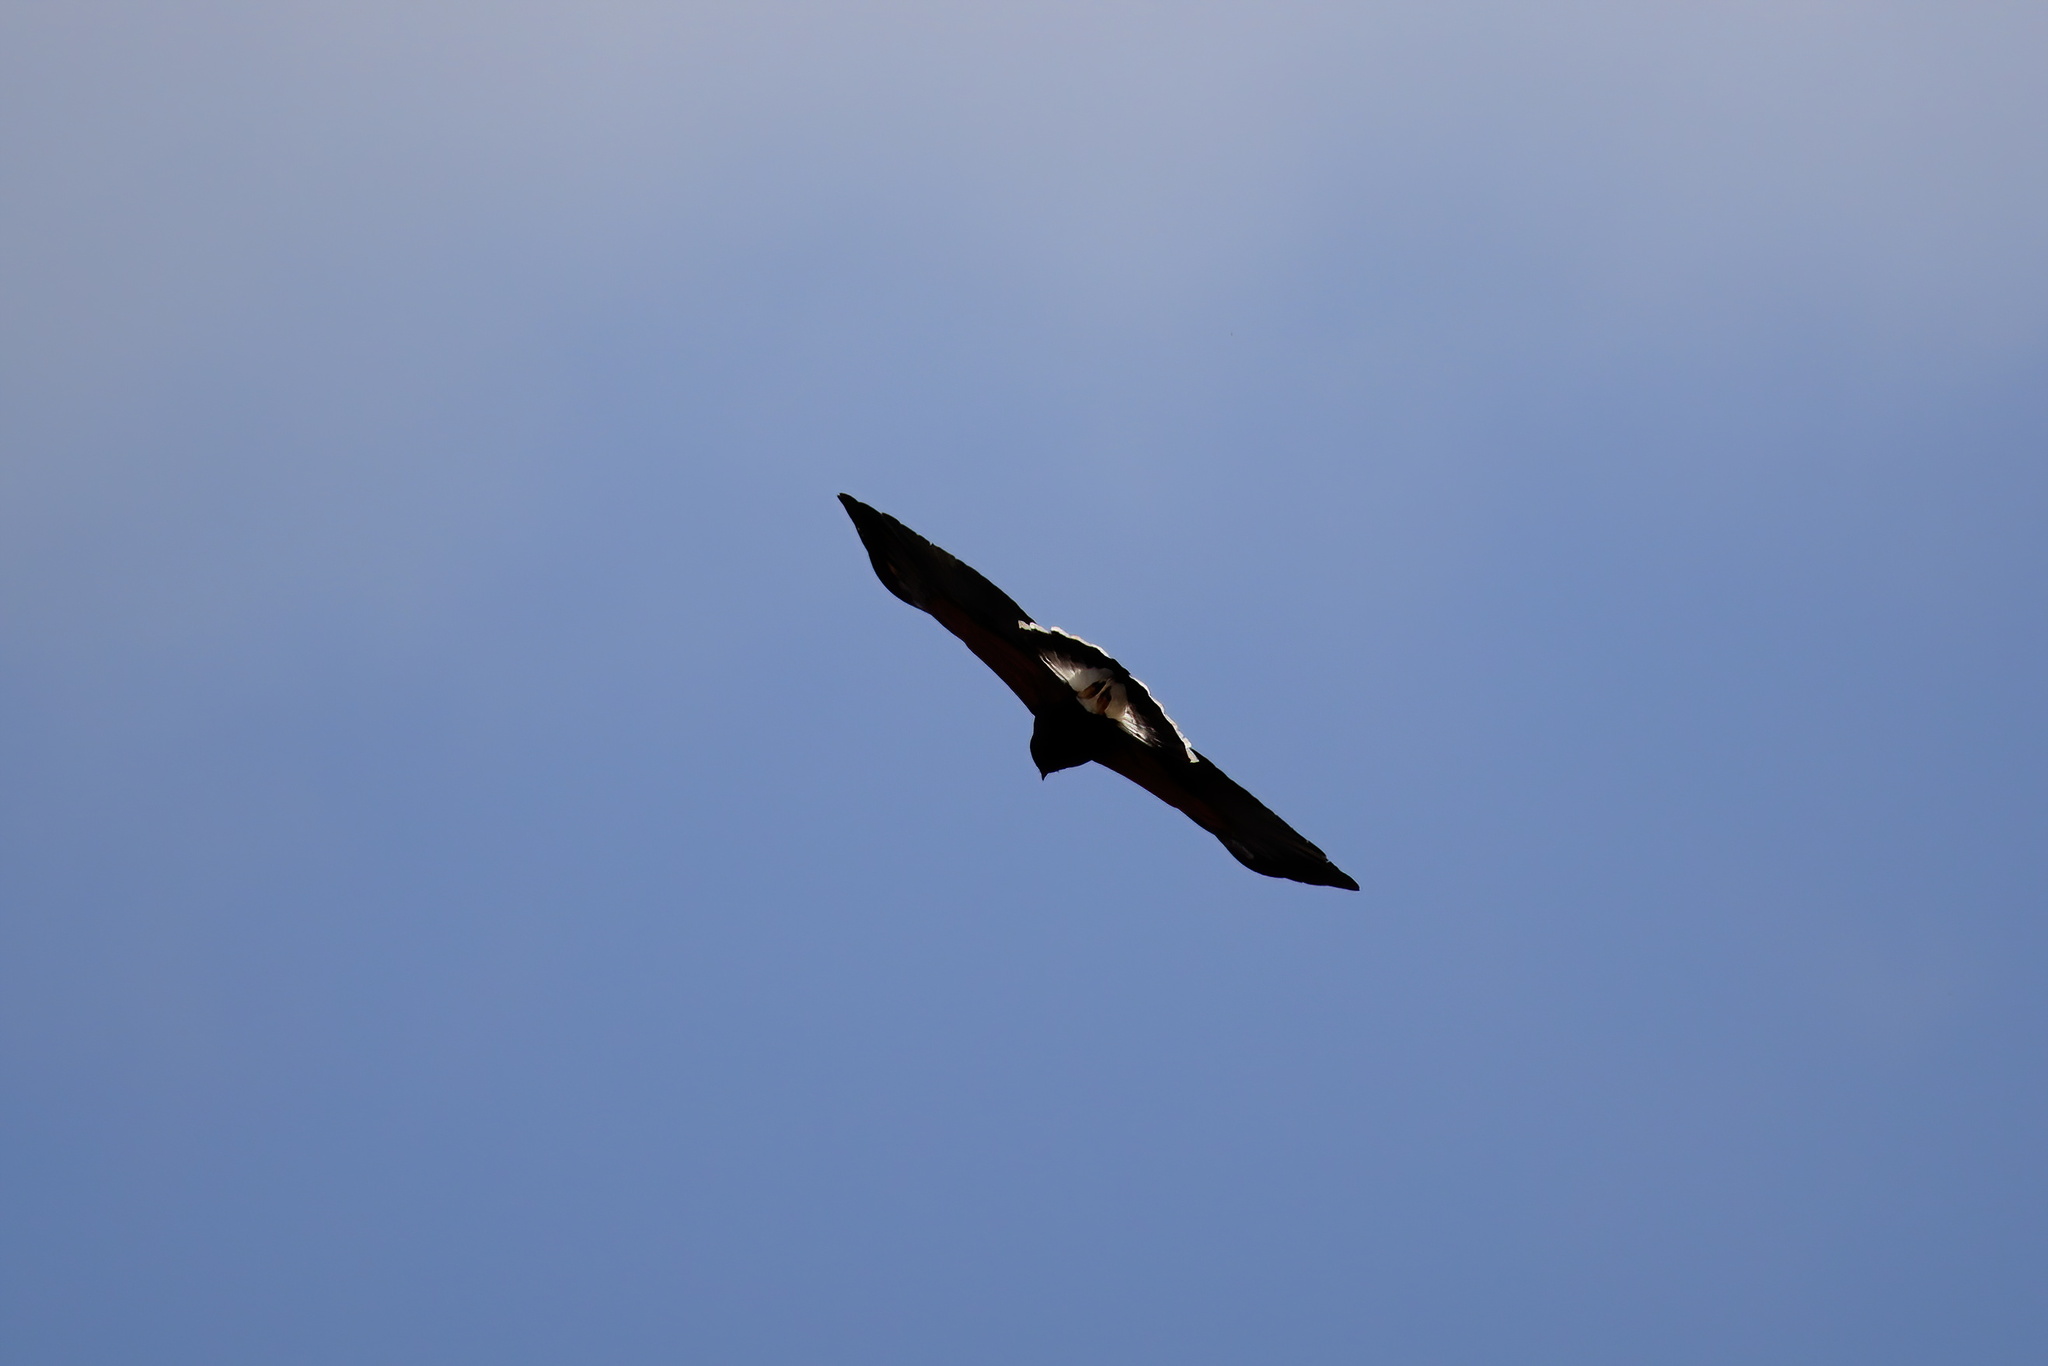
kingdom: Animalia
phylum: Chordata
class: Aves
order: Accipitriformes
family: Accipitridae
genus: Parabuteo
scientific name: Parabuteo unicinctus
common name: Harris's hawk
